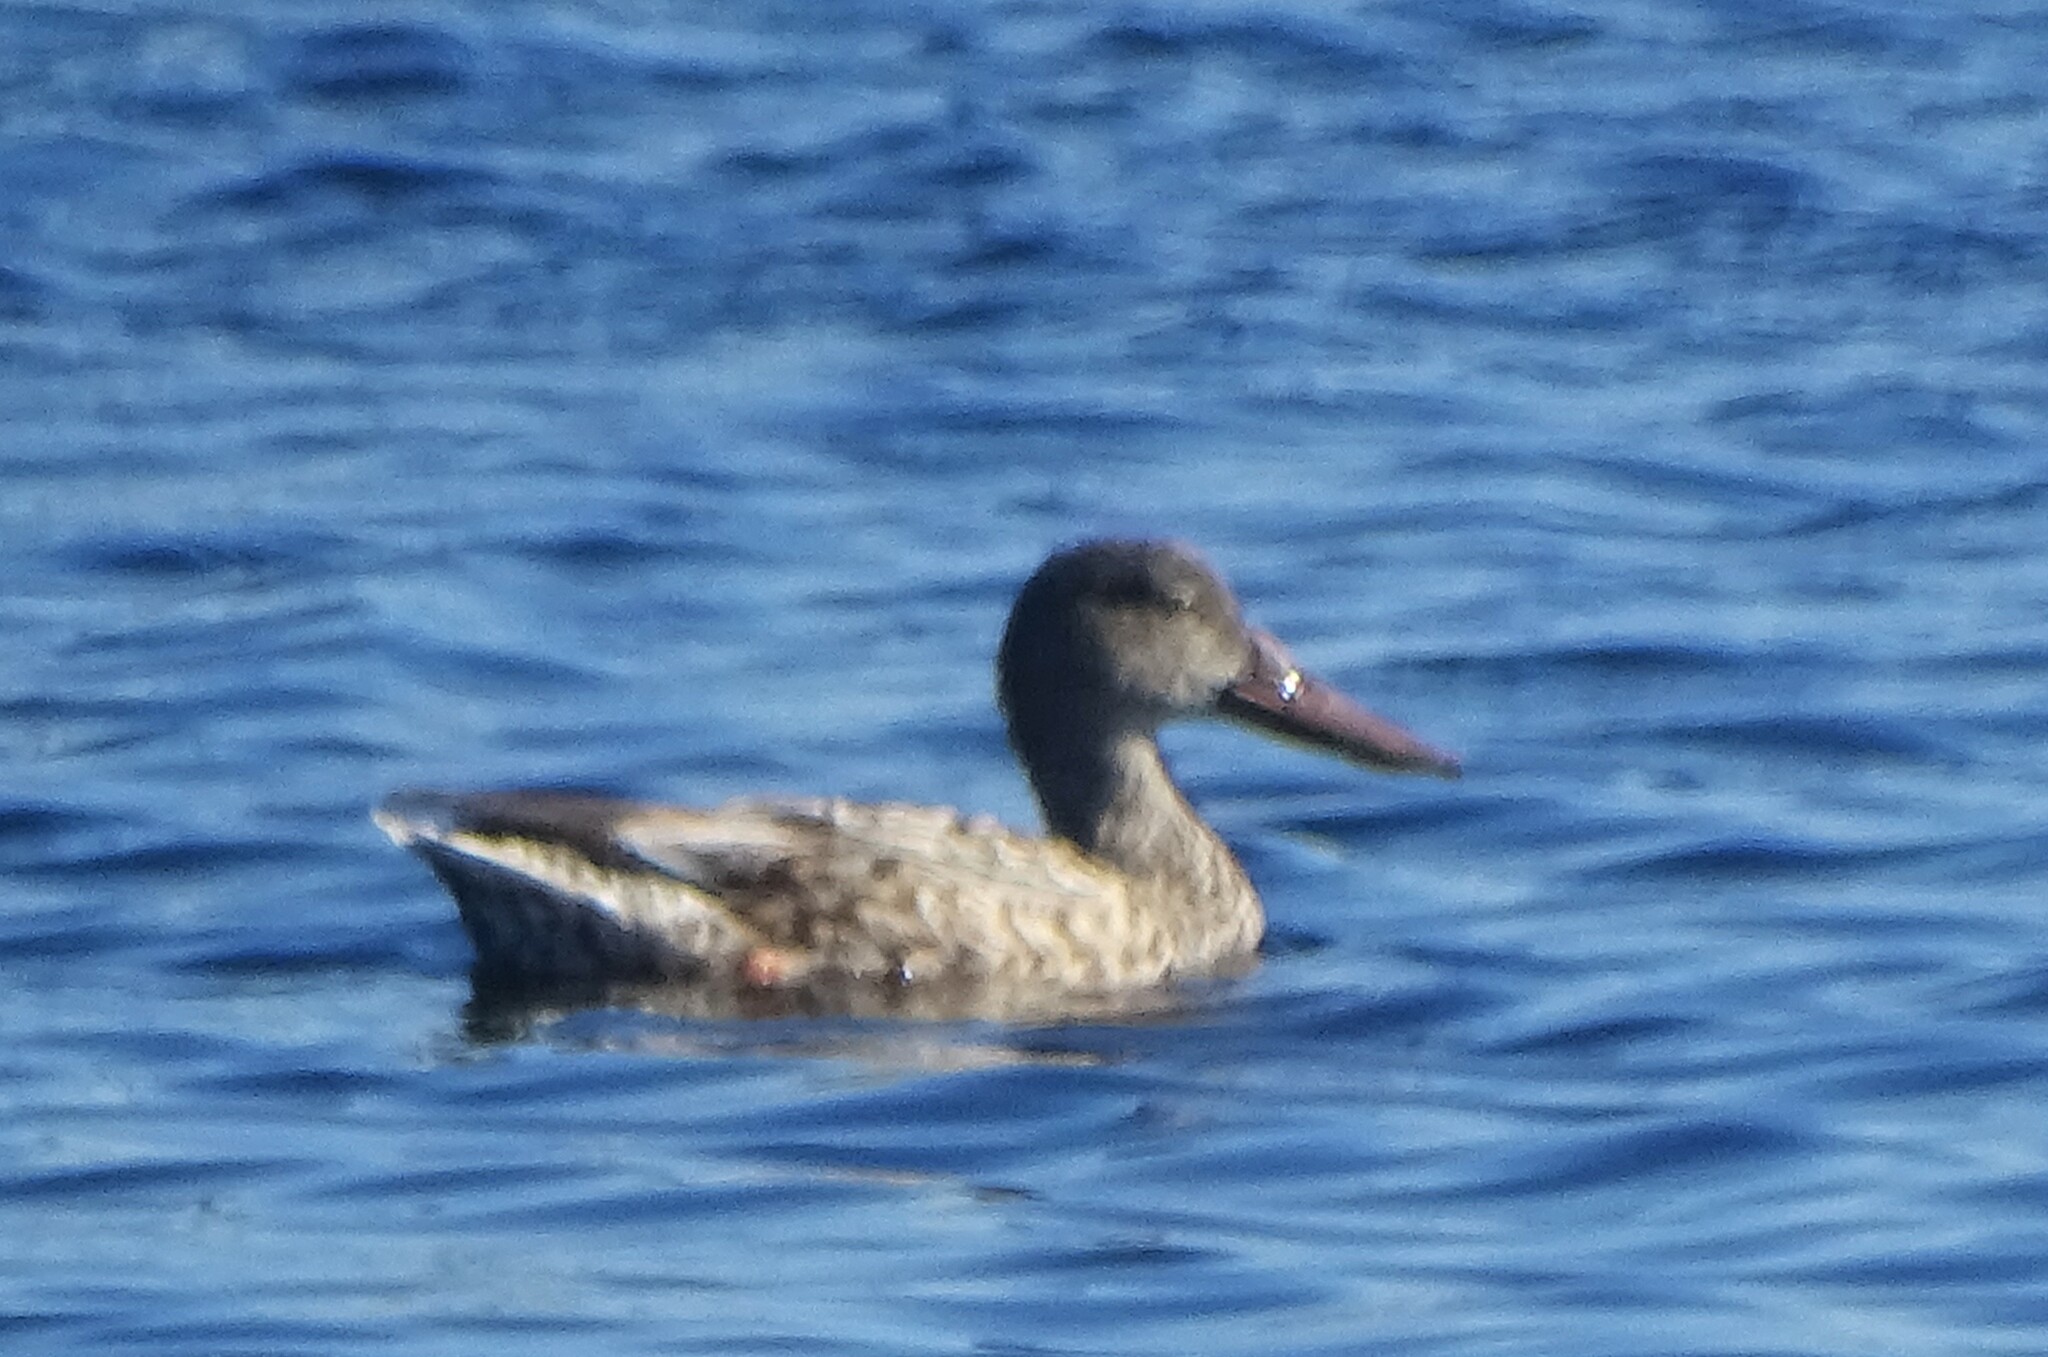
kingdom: Animalia
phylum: Chordata
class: Aves
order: Anseriformes
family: Anatidae
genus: Spatula
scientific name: Spatula clypeata
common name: Northern shoveler
